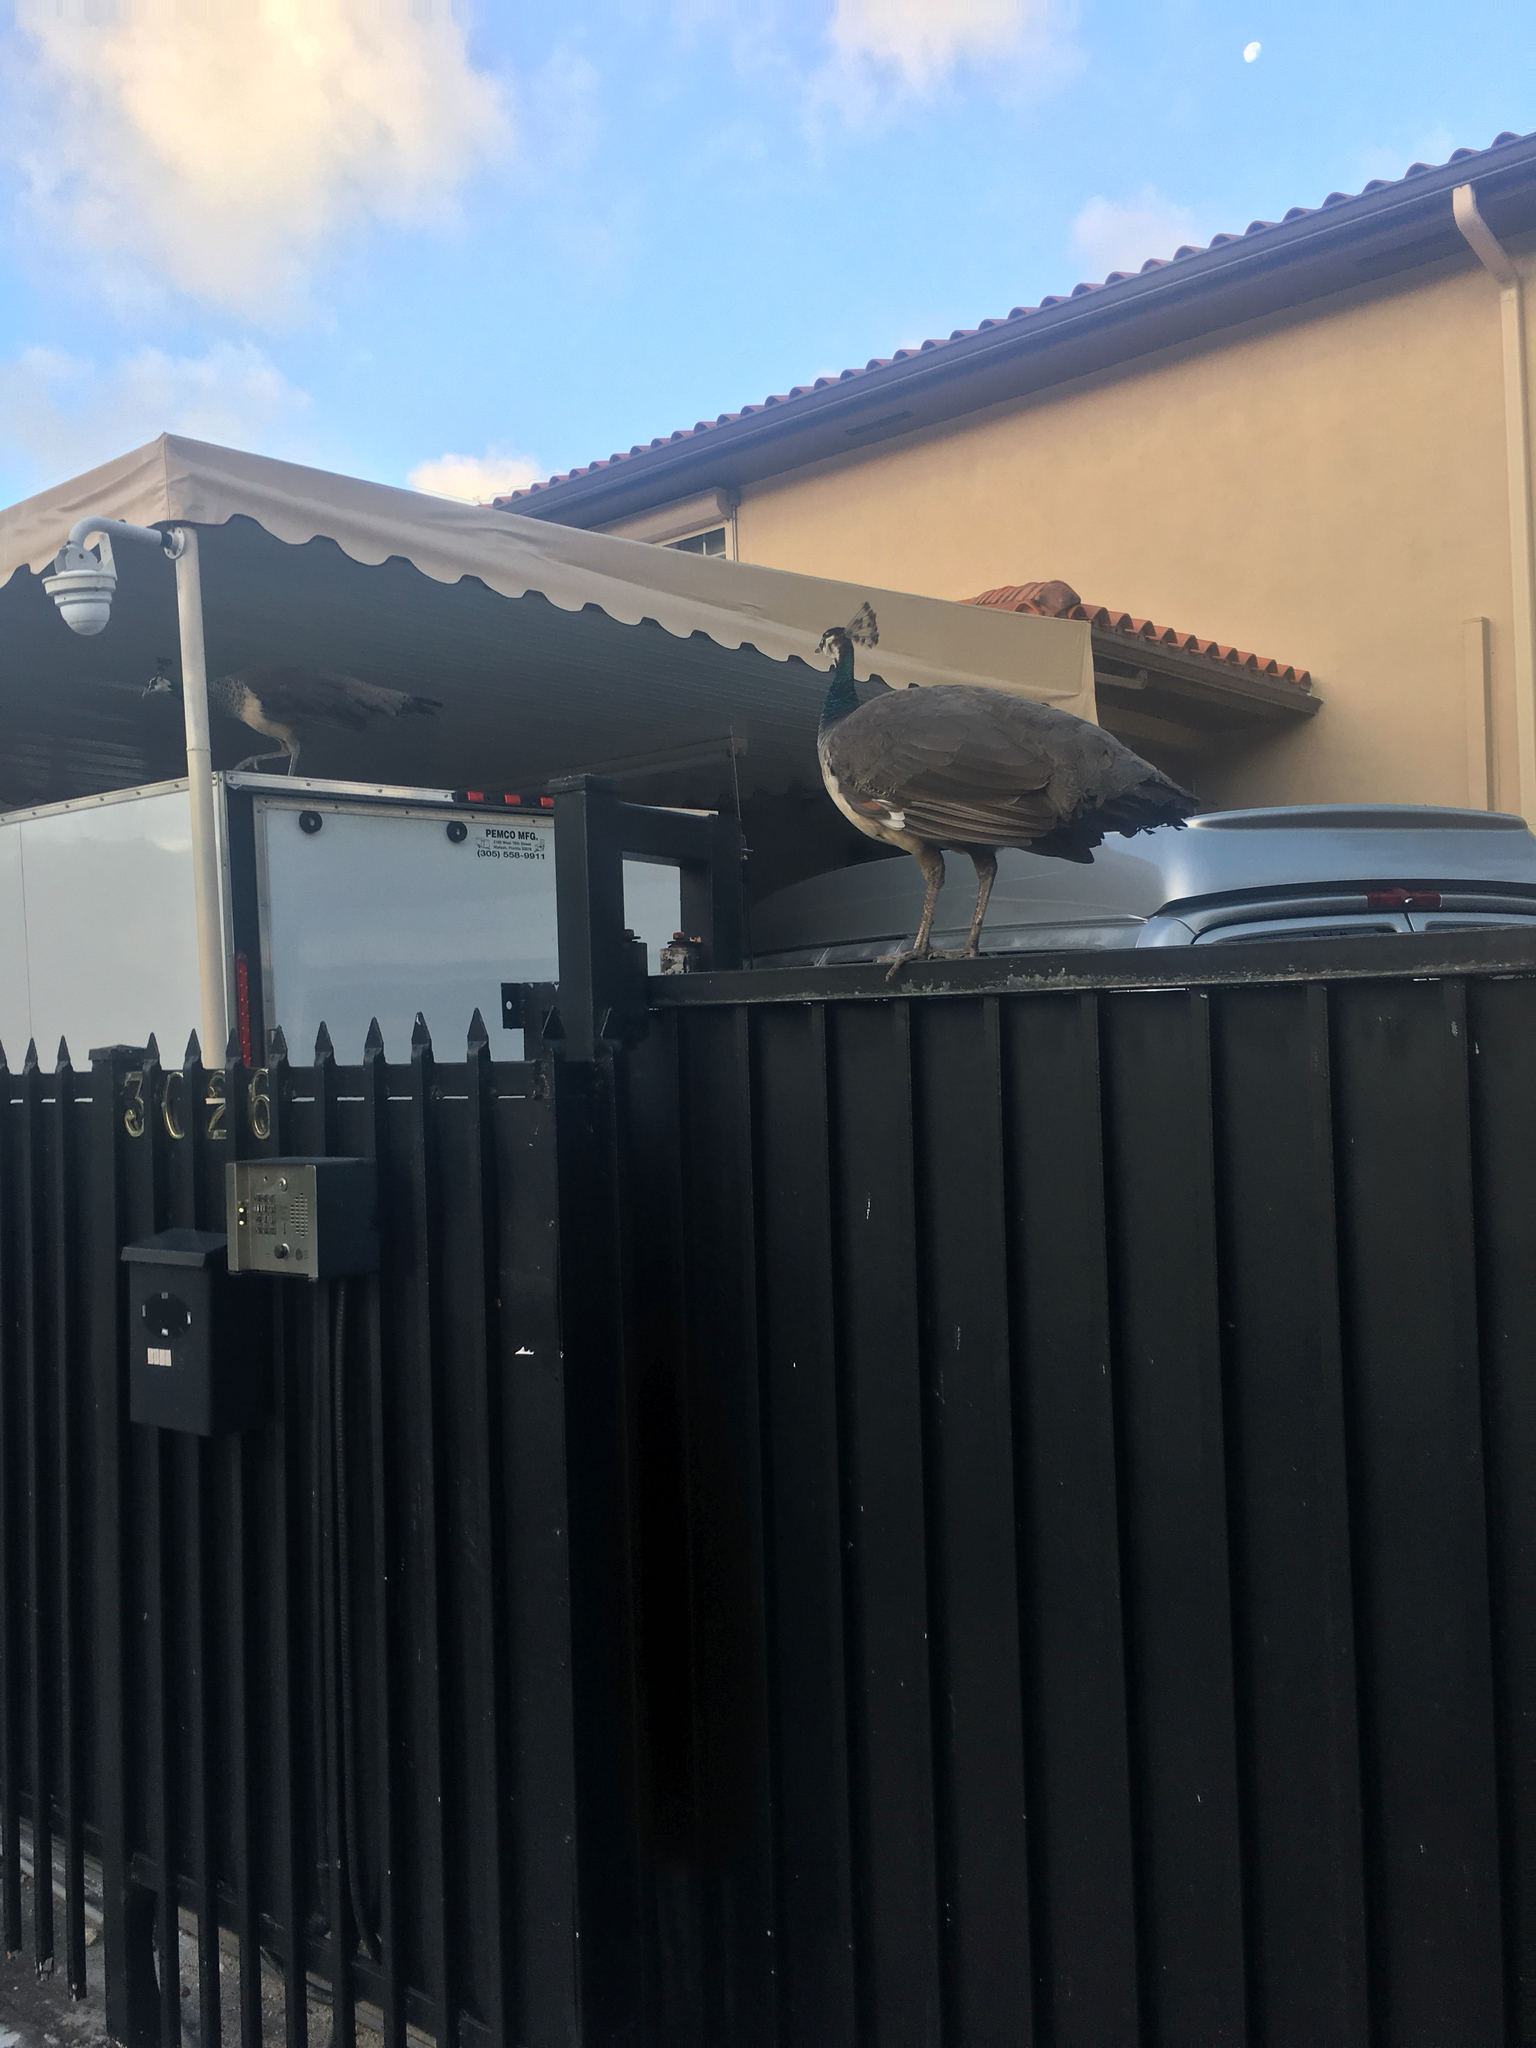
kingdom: Animalia
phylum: Chordata
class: Aves
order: Galliformes
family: Phasianidae
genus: Pavo
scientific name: Pavo cristatus
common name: Indian peafowl
